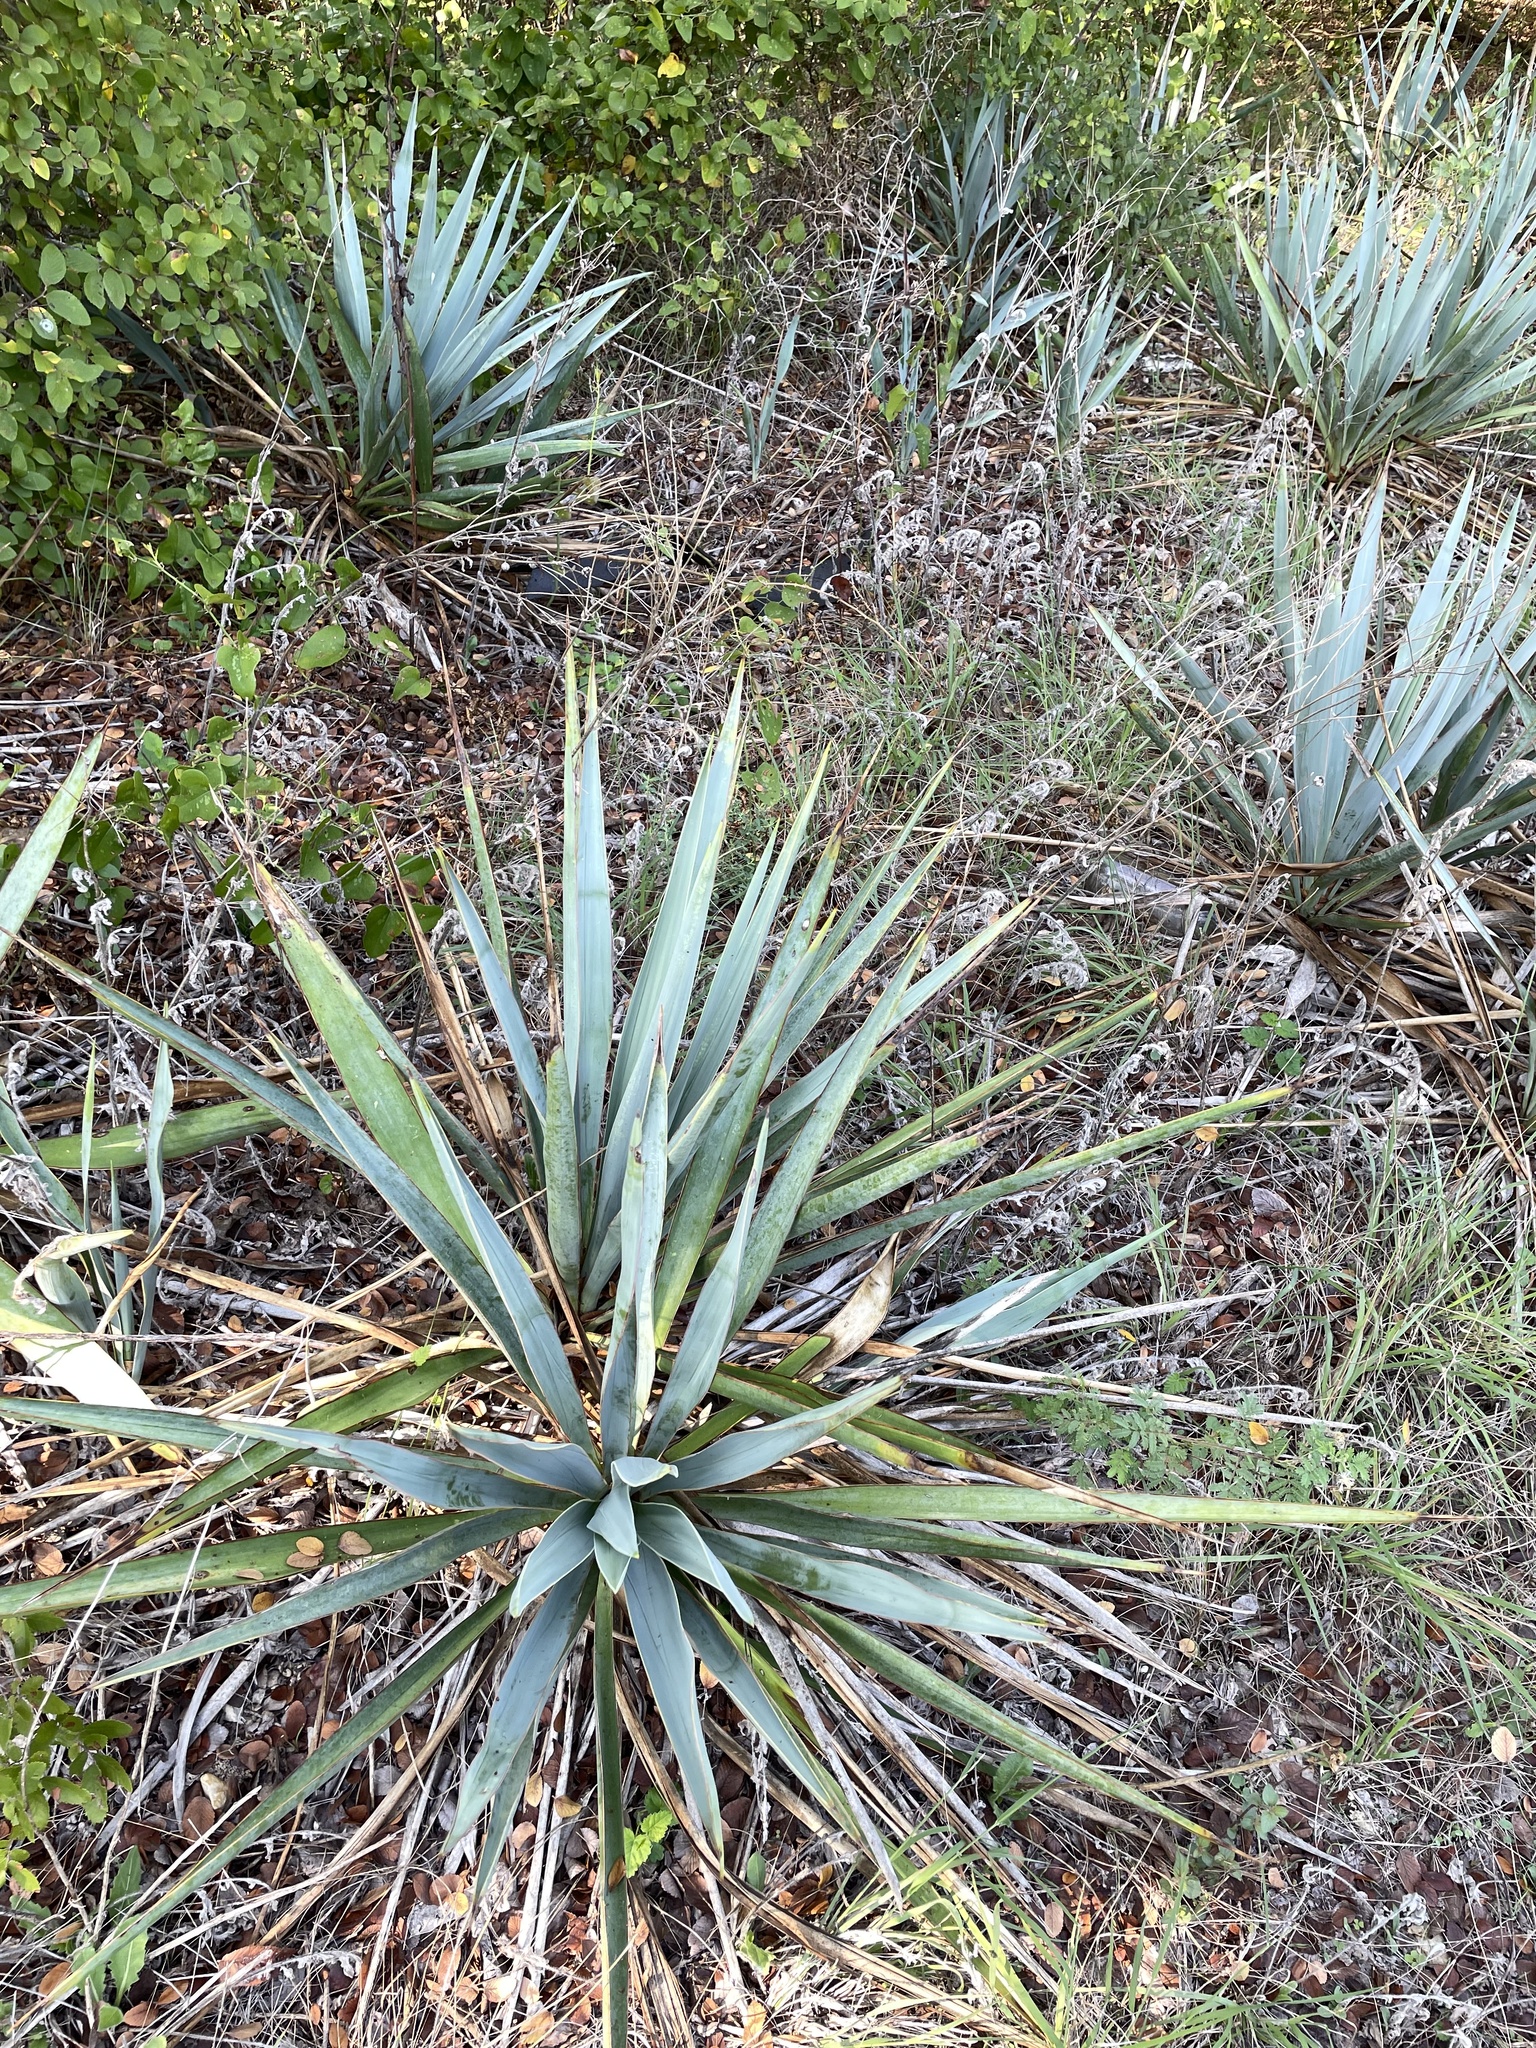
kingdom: Plantae
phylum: Tracheophyta
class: Liliopsida
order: Asparagales
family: Asparagaceae
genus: Yucca
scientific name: Yucca pallida
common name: Pale leaf yucca
